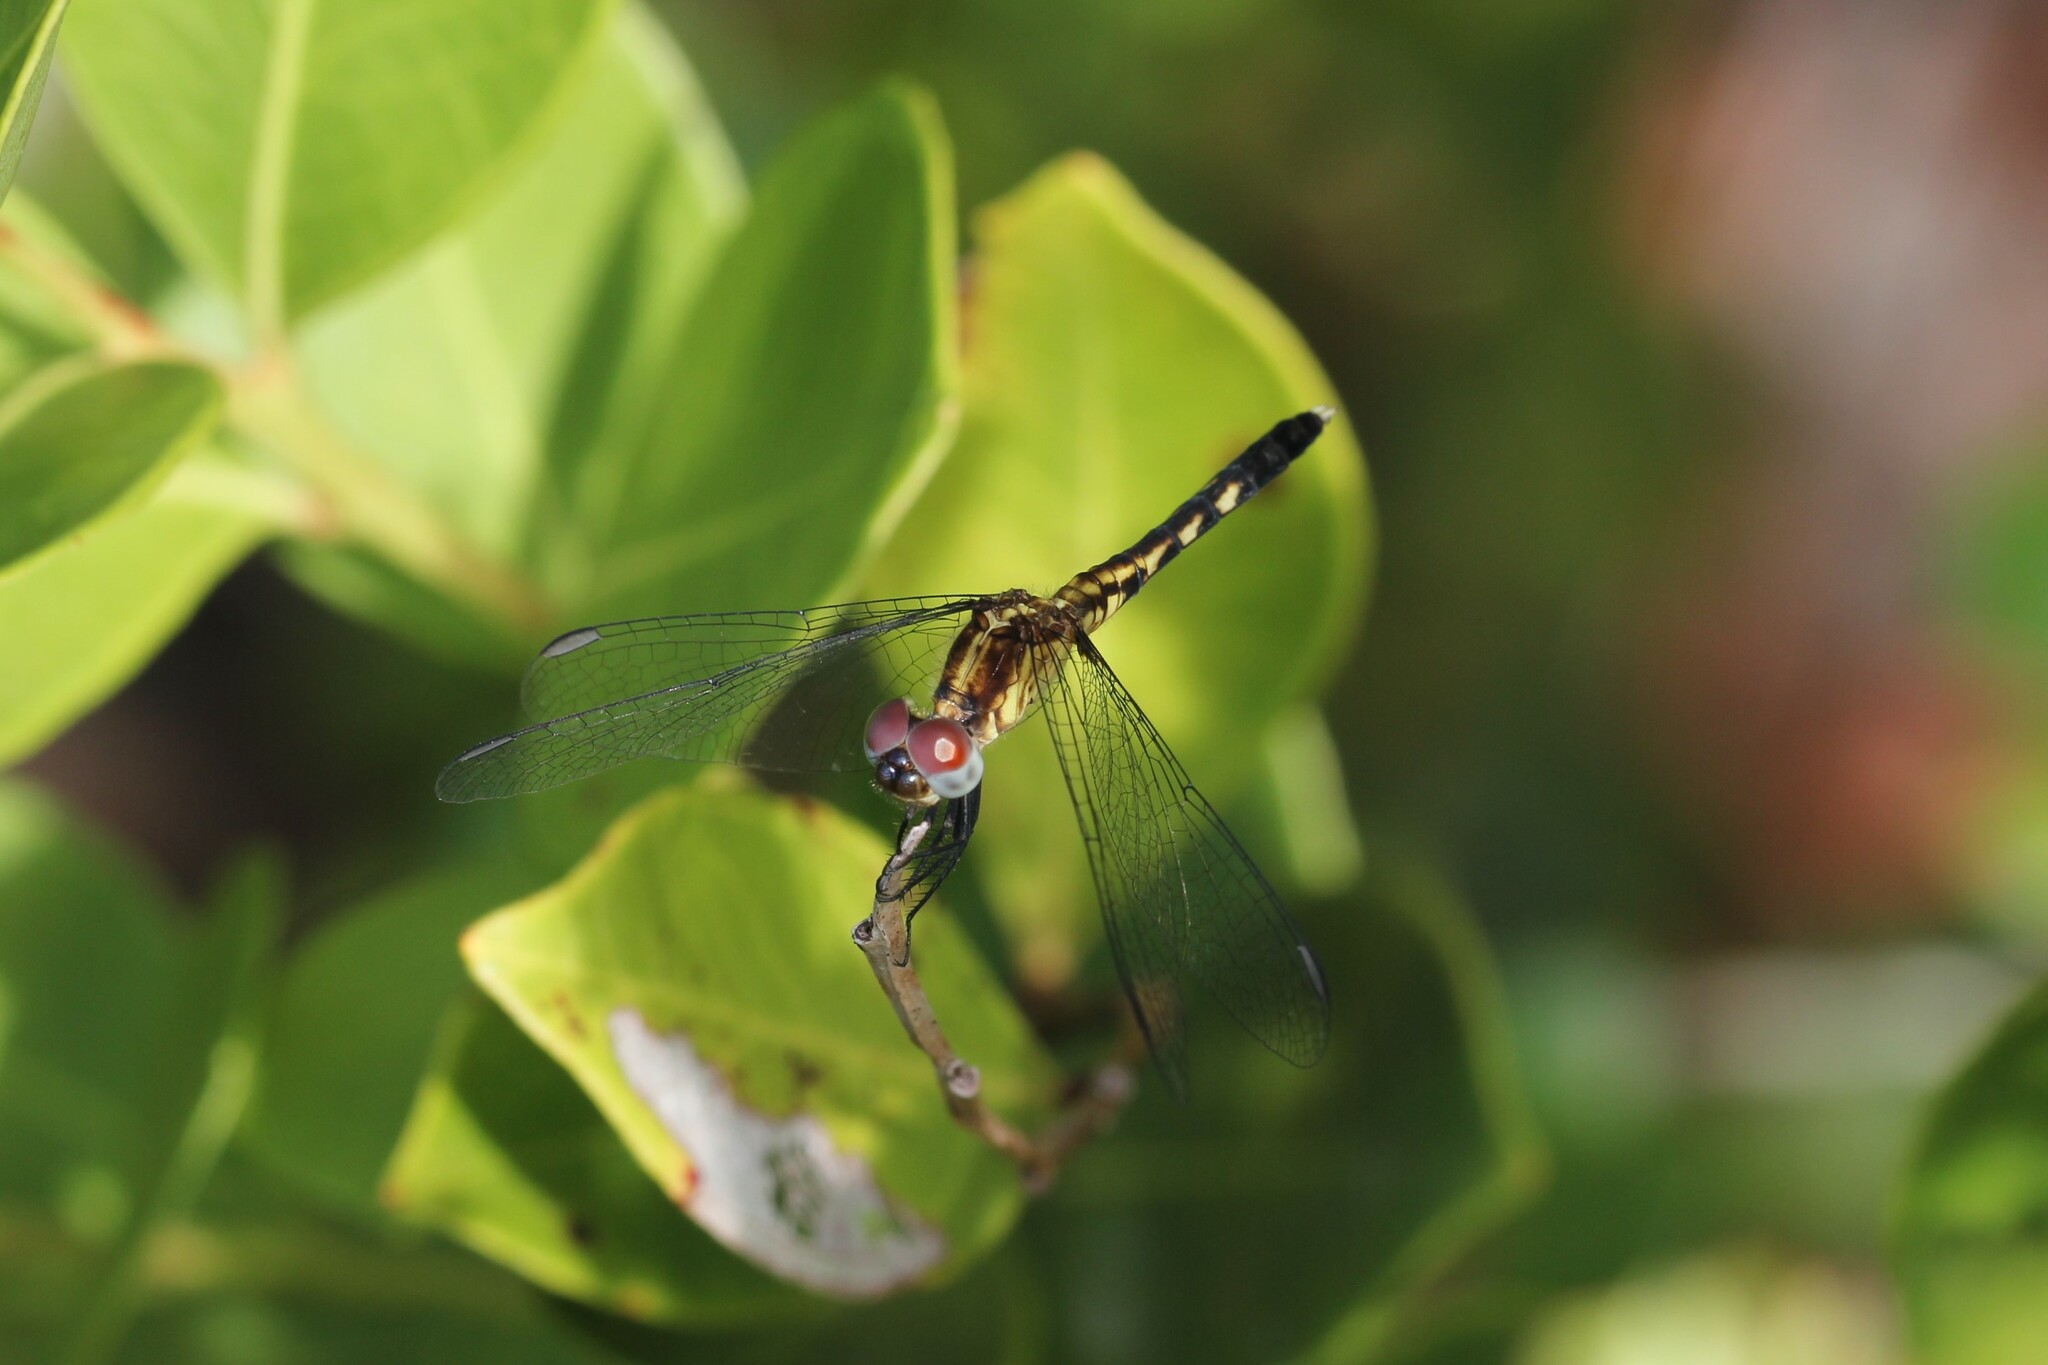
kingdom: Animalia
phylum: Arthropoda
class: Insecta
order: Odonata
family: Libellulidae
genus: Erythrodiplax
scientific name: Erythrodiplax minuscula
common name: Little blue dragonlet
